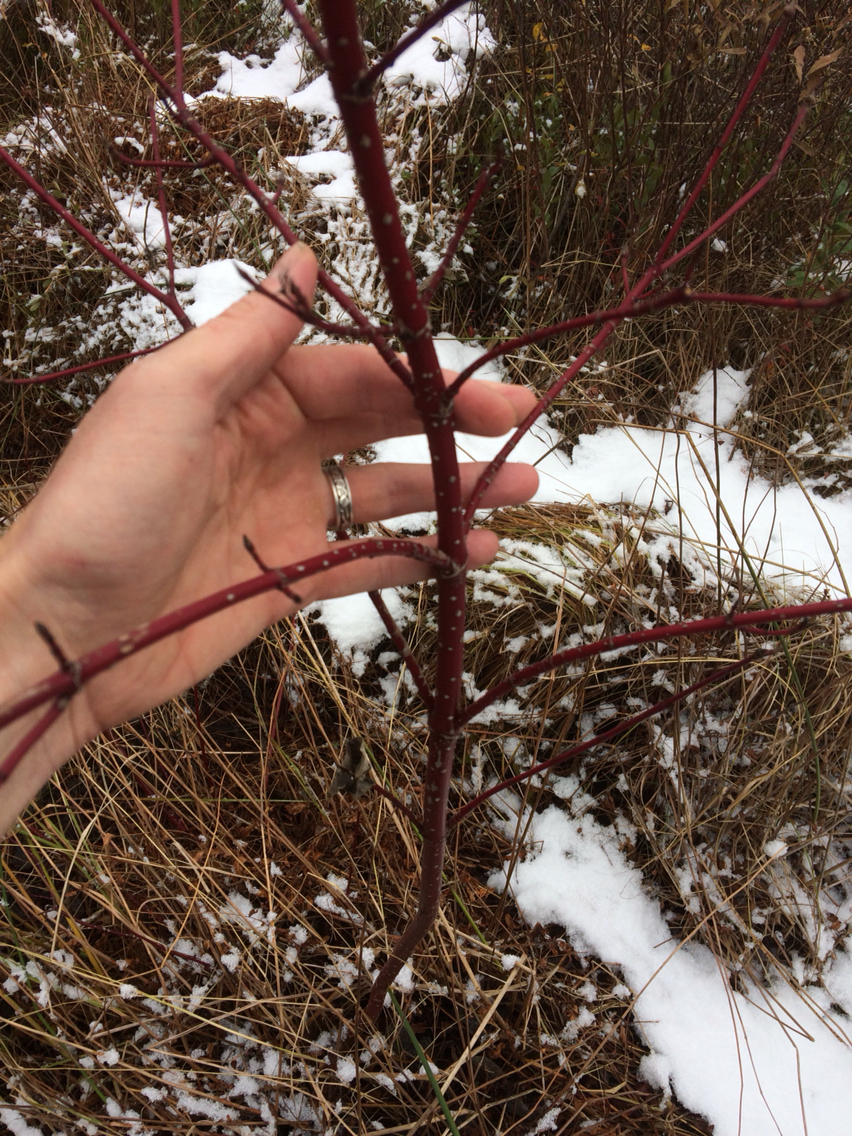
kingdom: Plantae
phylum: Tracheophyta
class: Magnoliopsida
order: Cornales
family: Cornaceae
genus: Cornus
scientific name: Cornus sericea
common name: Red-osier dogwood
